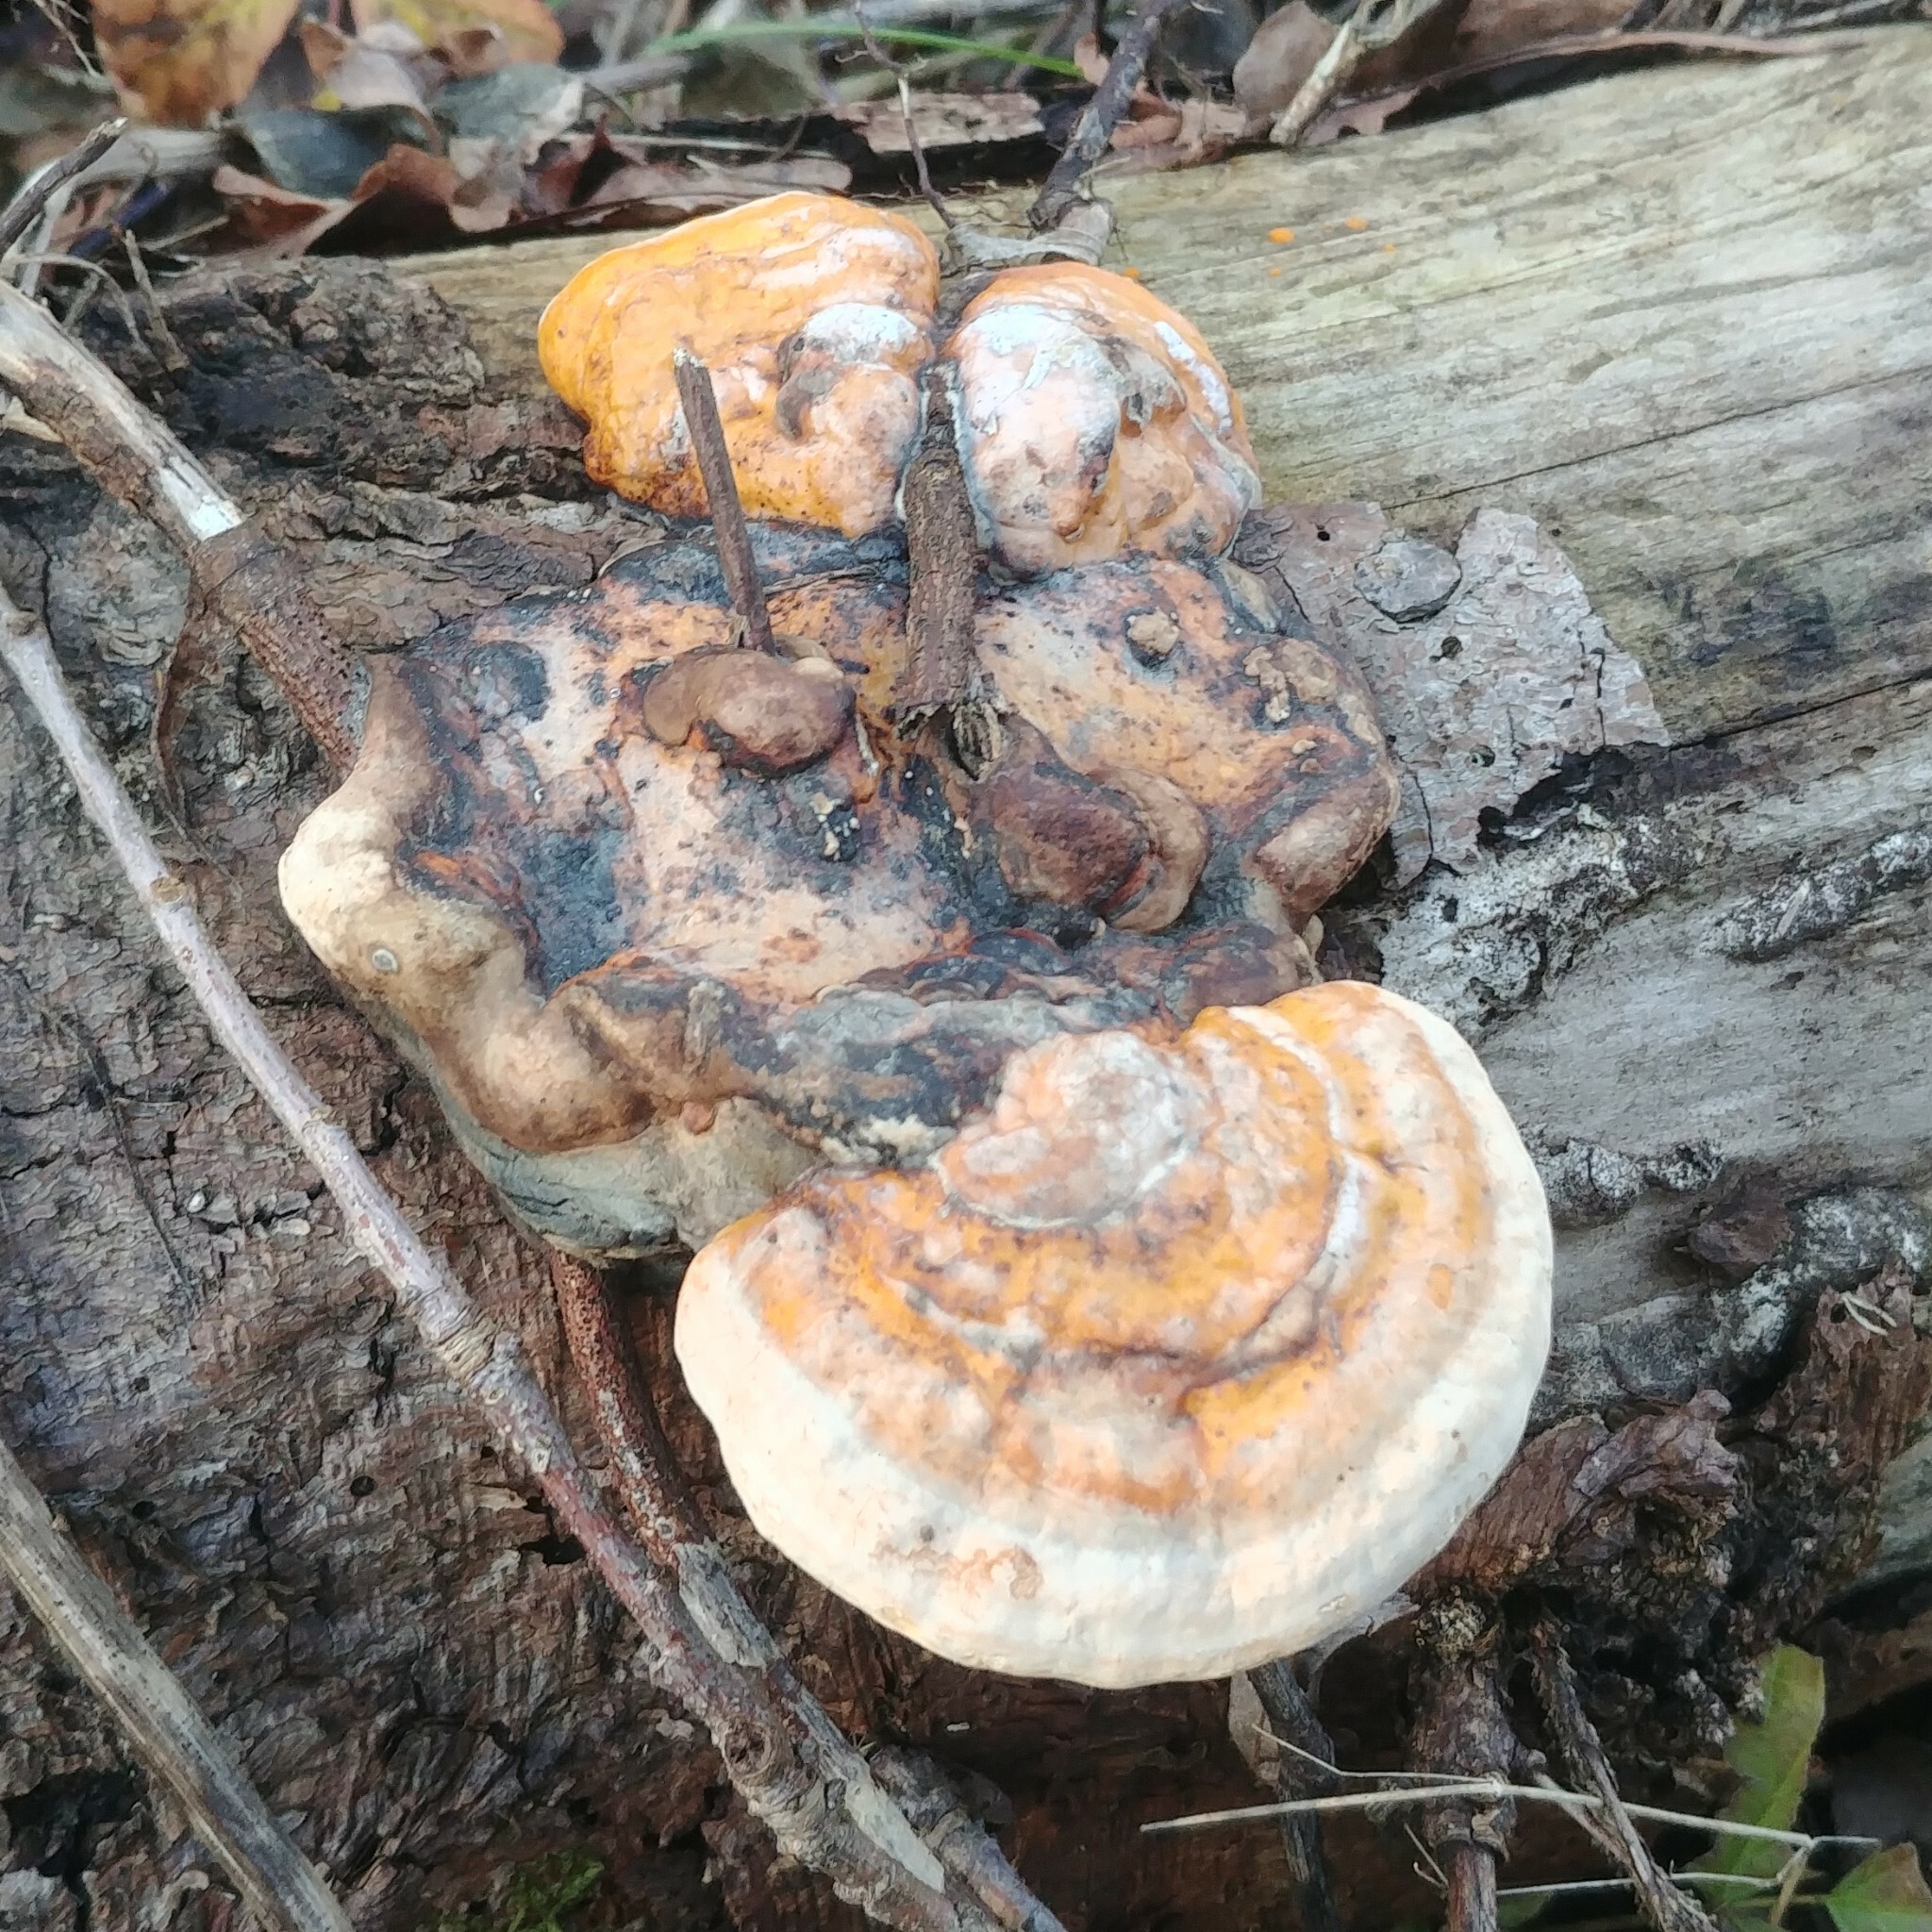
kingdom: Fungi
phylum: Basidiomycota
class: Agaricomycetes
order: Polyporales
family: Fomitopsidaceae
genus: Fomitopsis
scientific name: Fomitopsis pinicola
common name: Red-belted bracket
